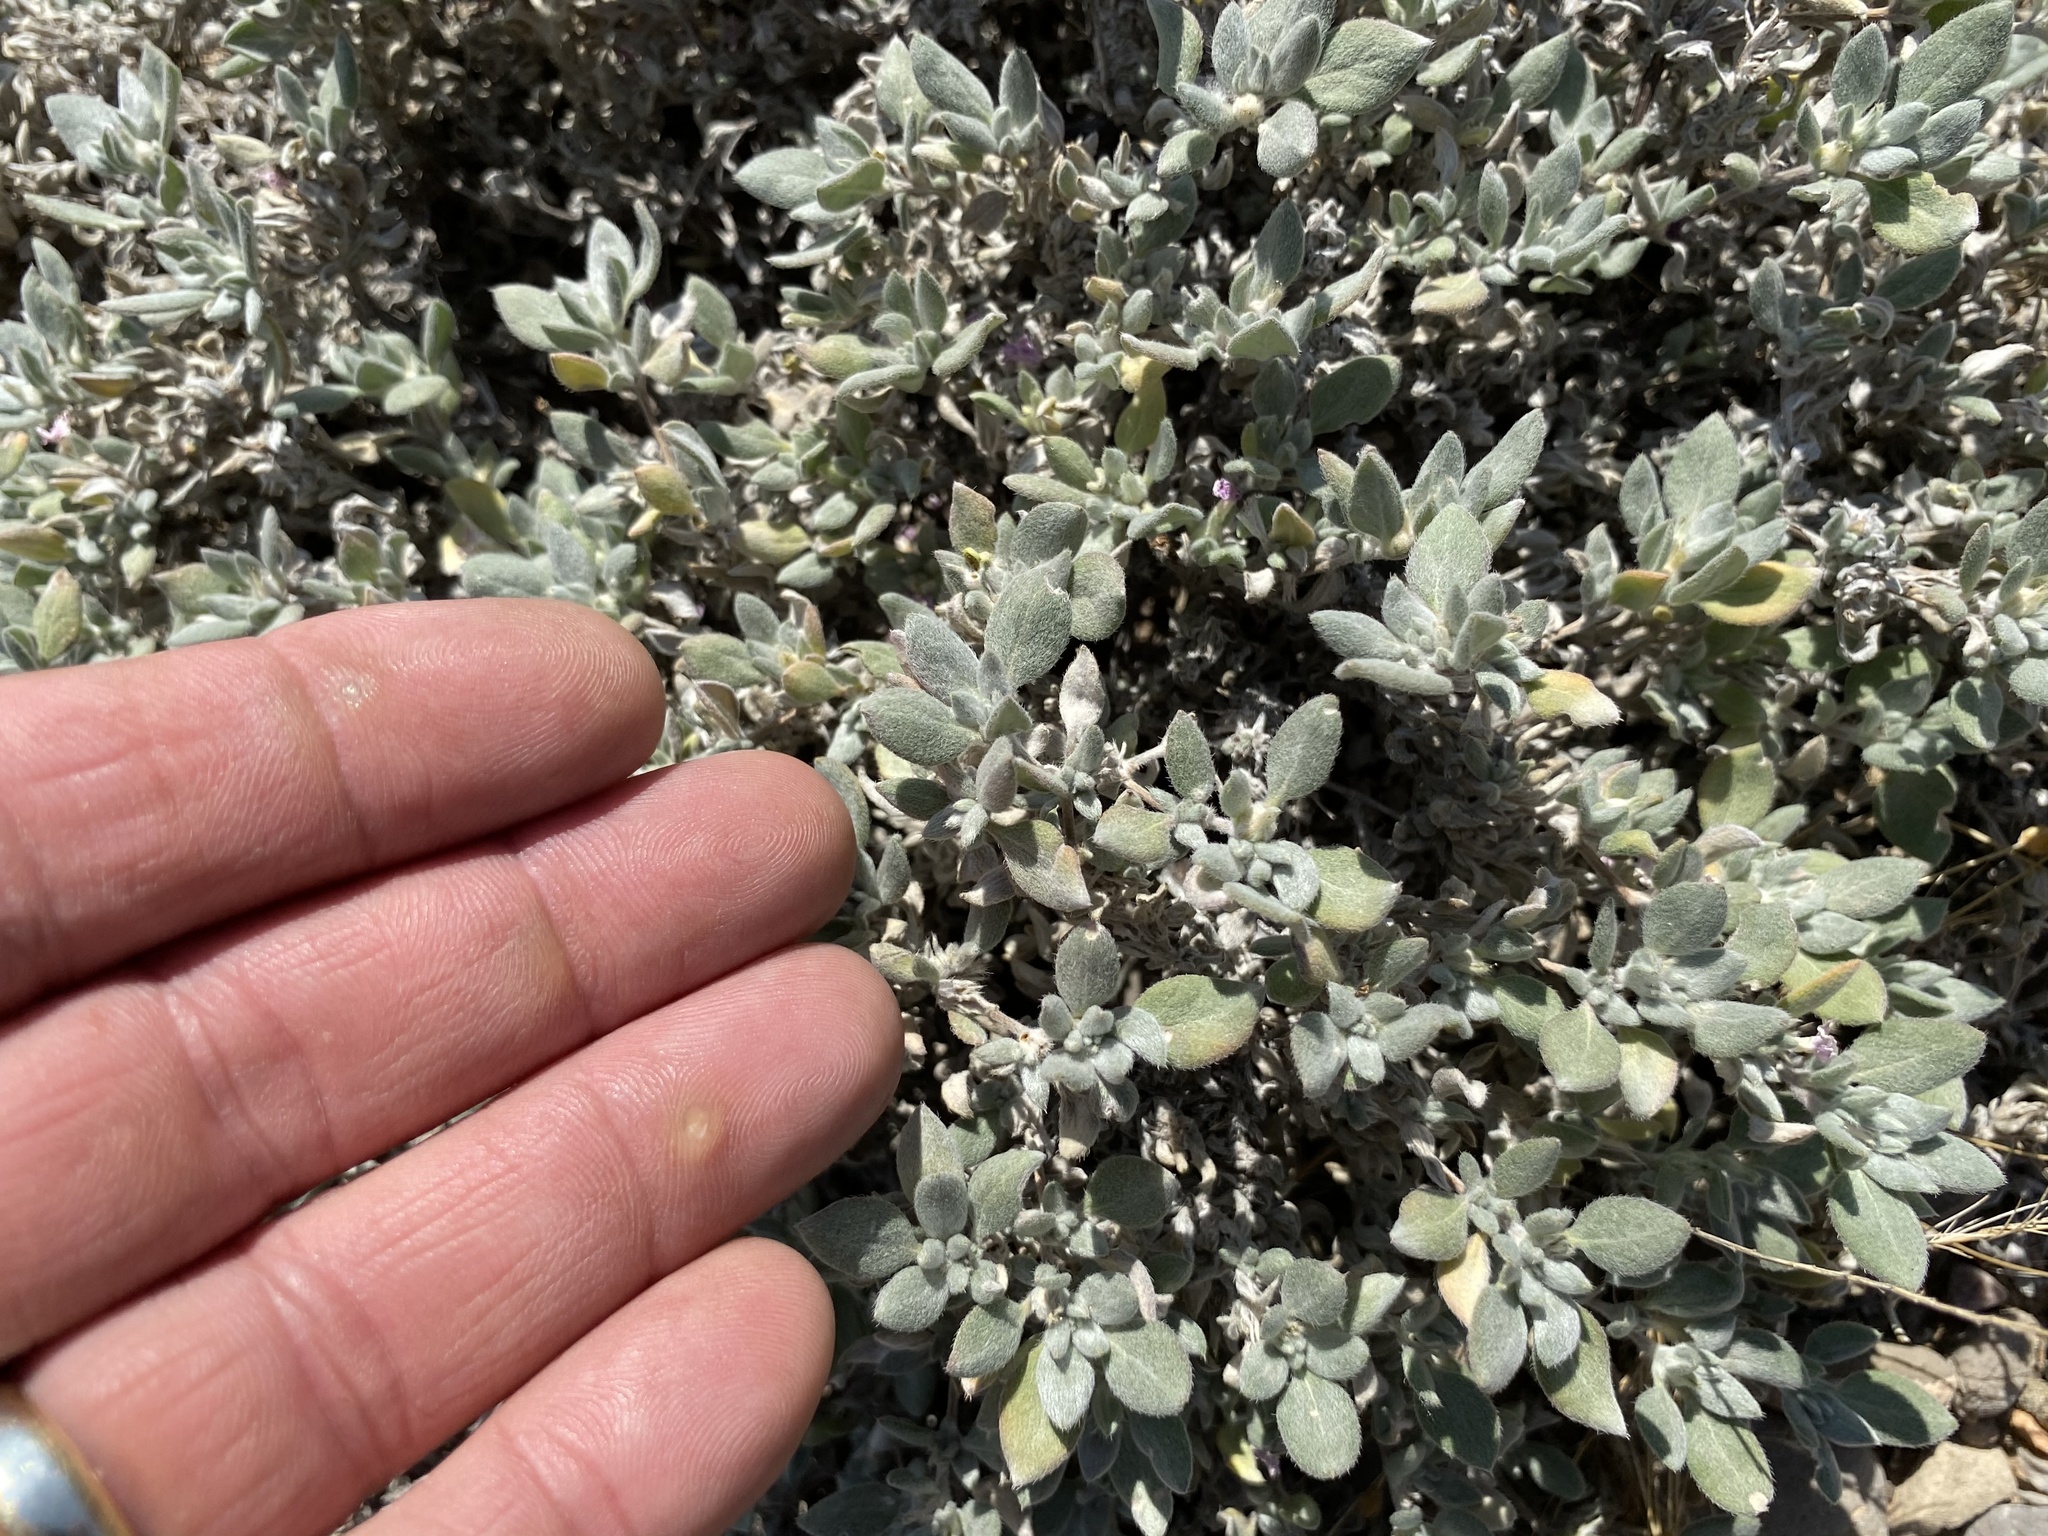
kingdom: Plantae
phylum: Tracheophyta
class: Magnoliopsida
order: Boraginales
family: Ehretiaceae
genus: Tiquilia
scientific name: Tiquilia canescens
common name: Hairy tiquilia
